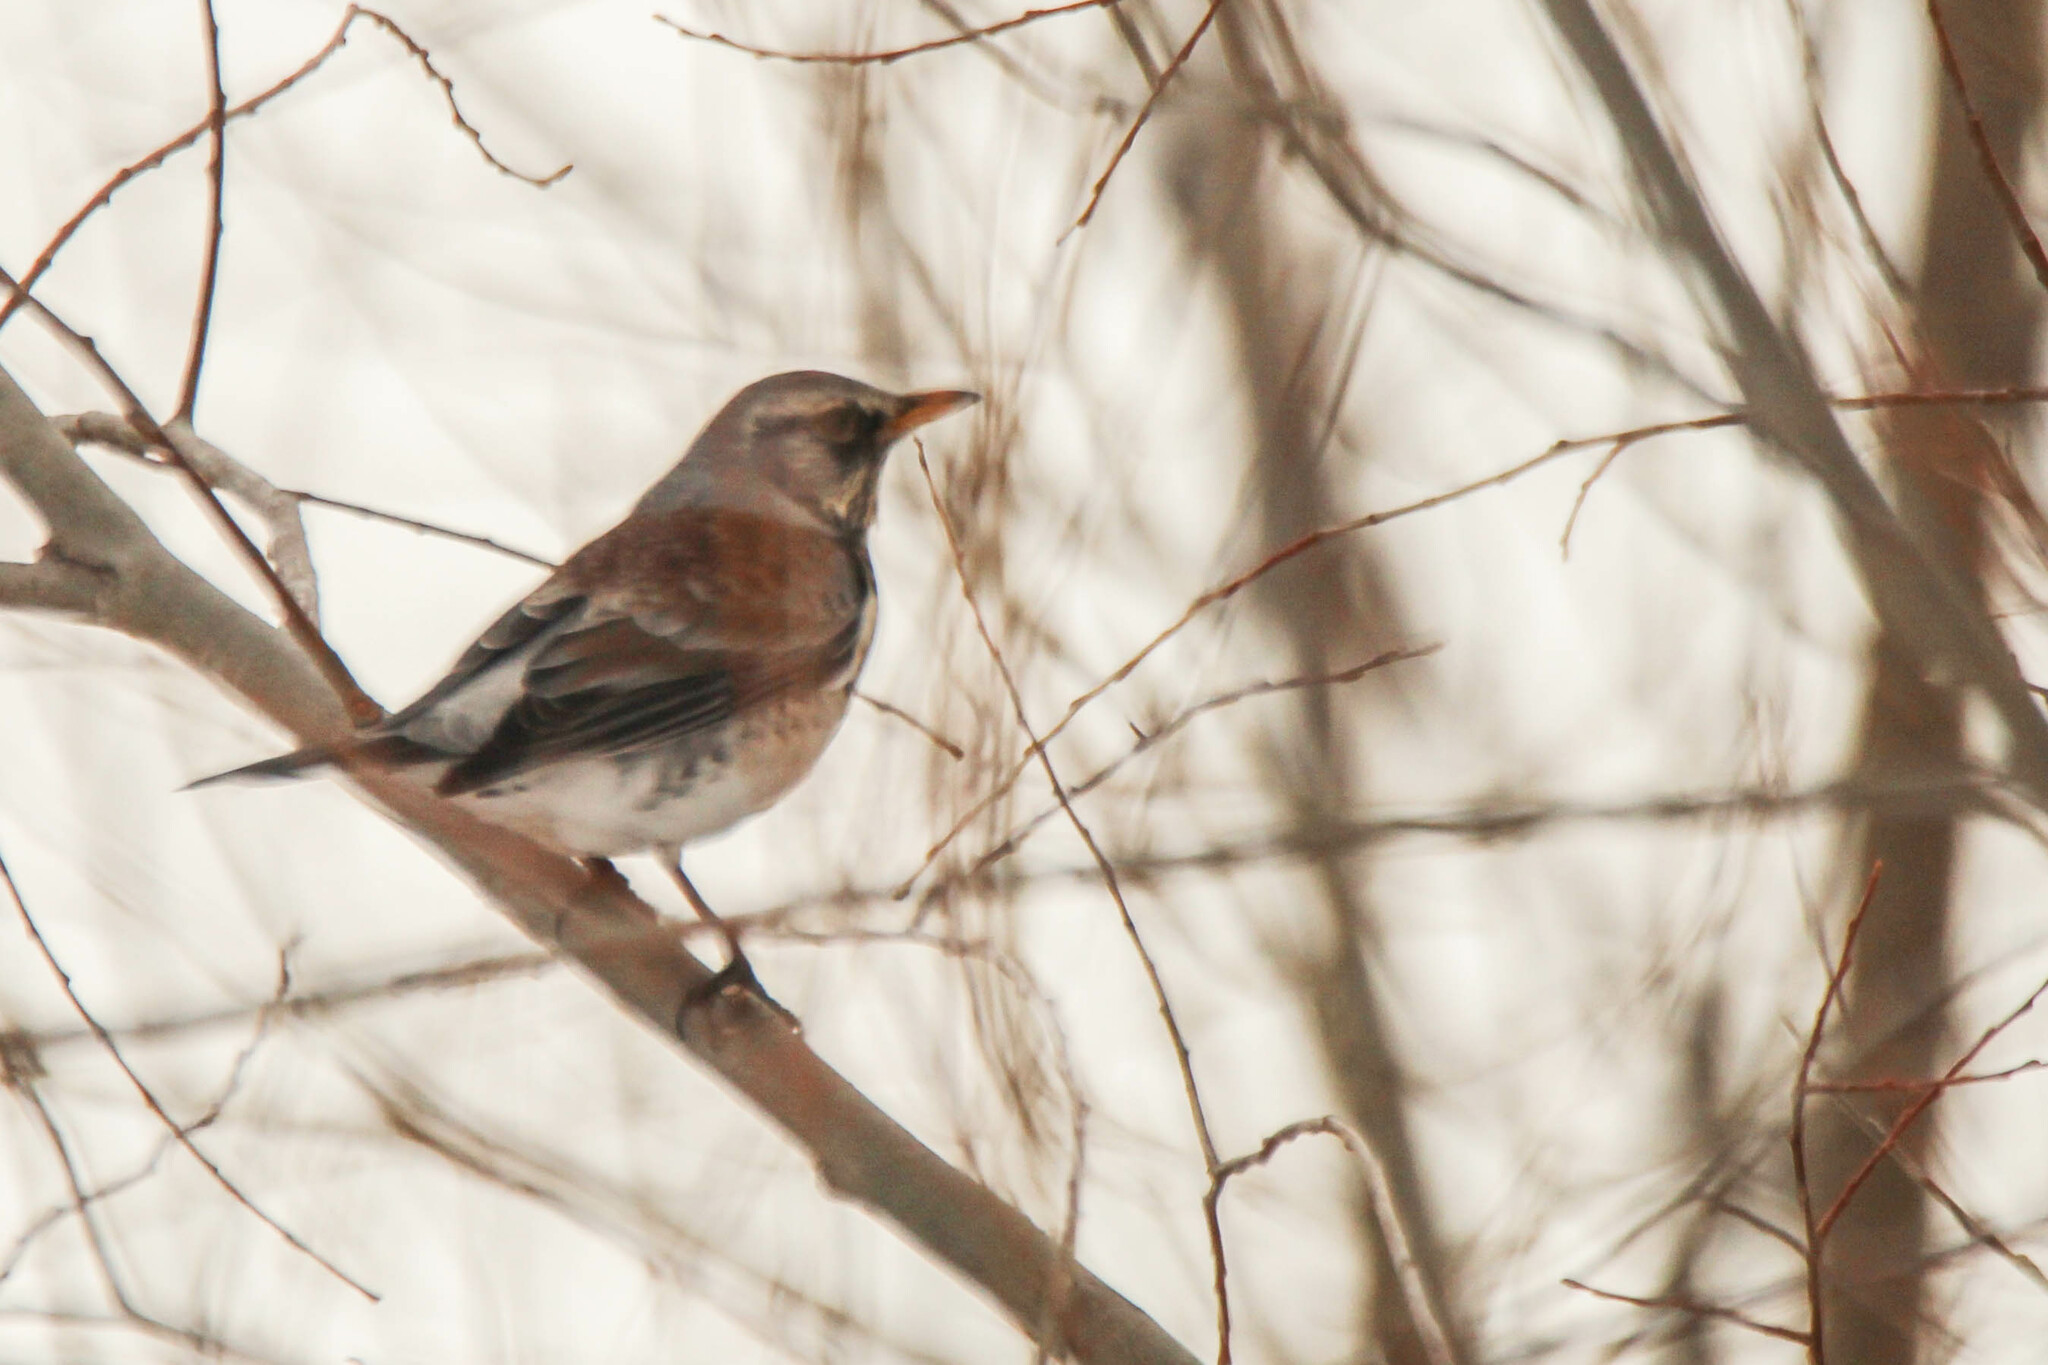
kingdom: Animalia
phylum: Chordata
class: Aves
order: Passeriformes
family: Turdidae
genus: Turdus
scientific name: Turdus pilaris
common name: Fieldfare
